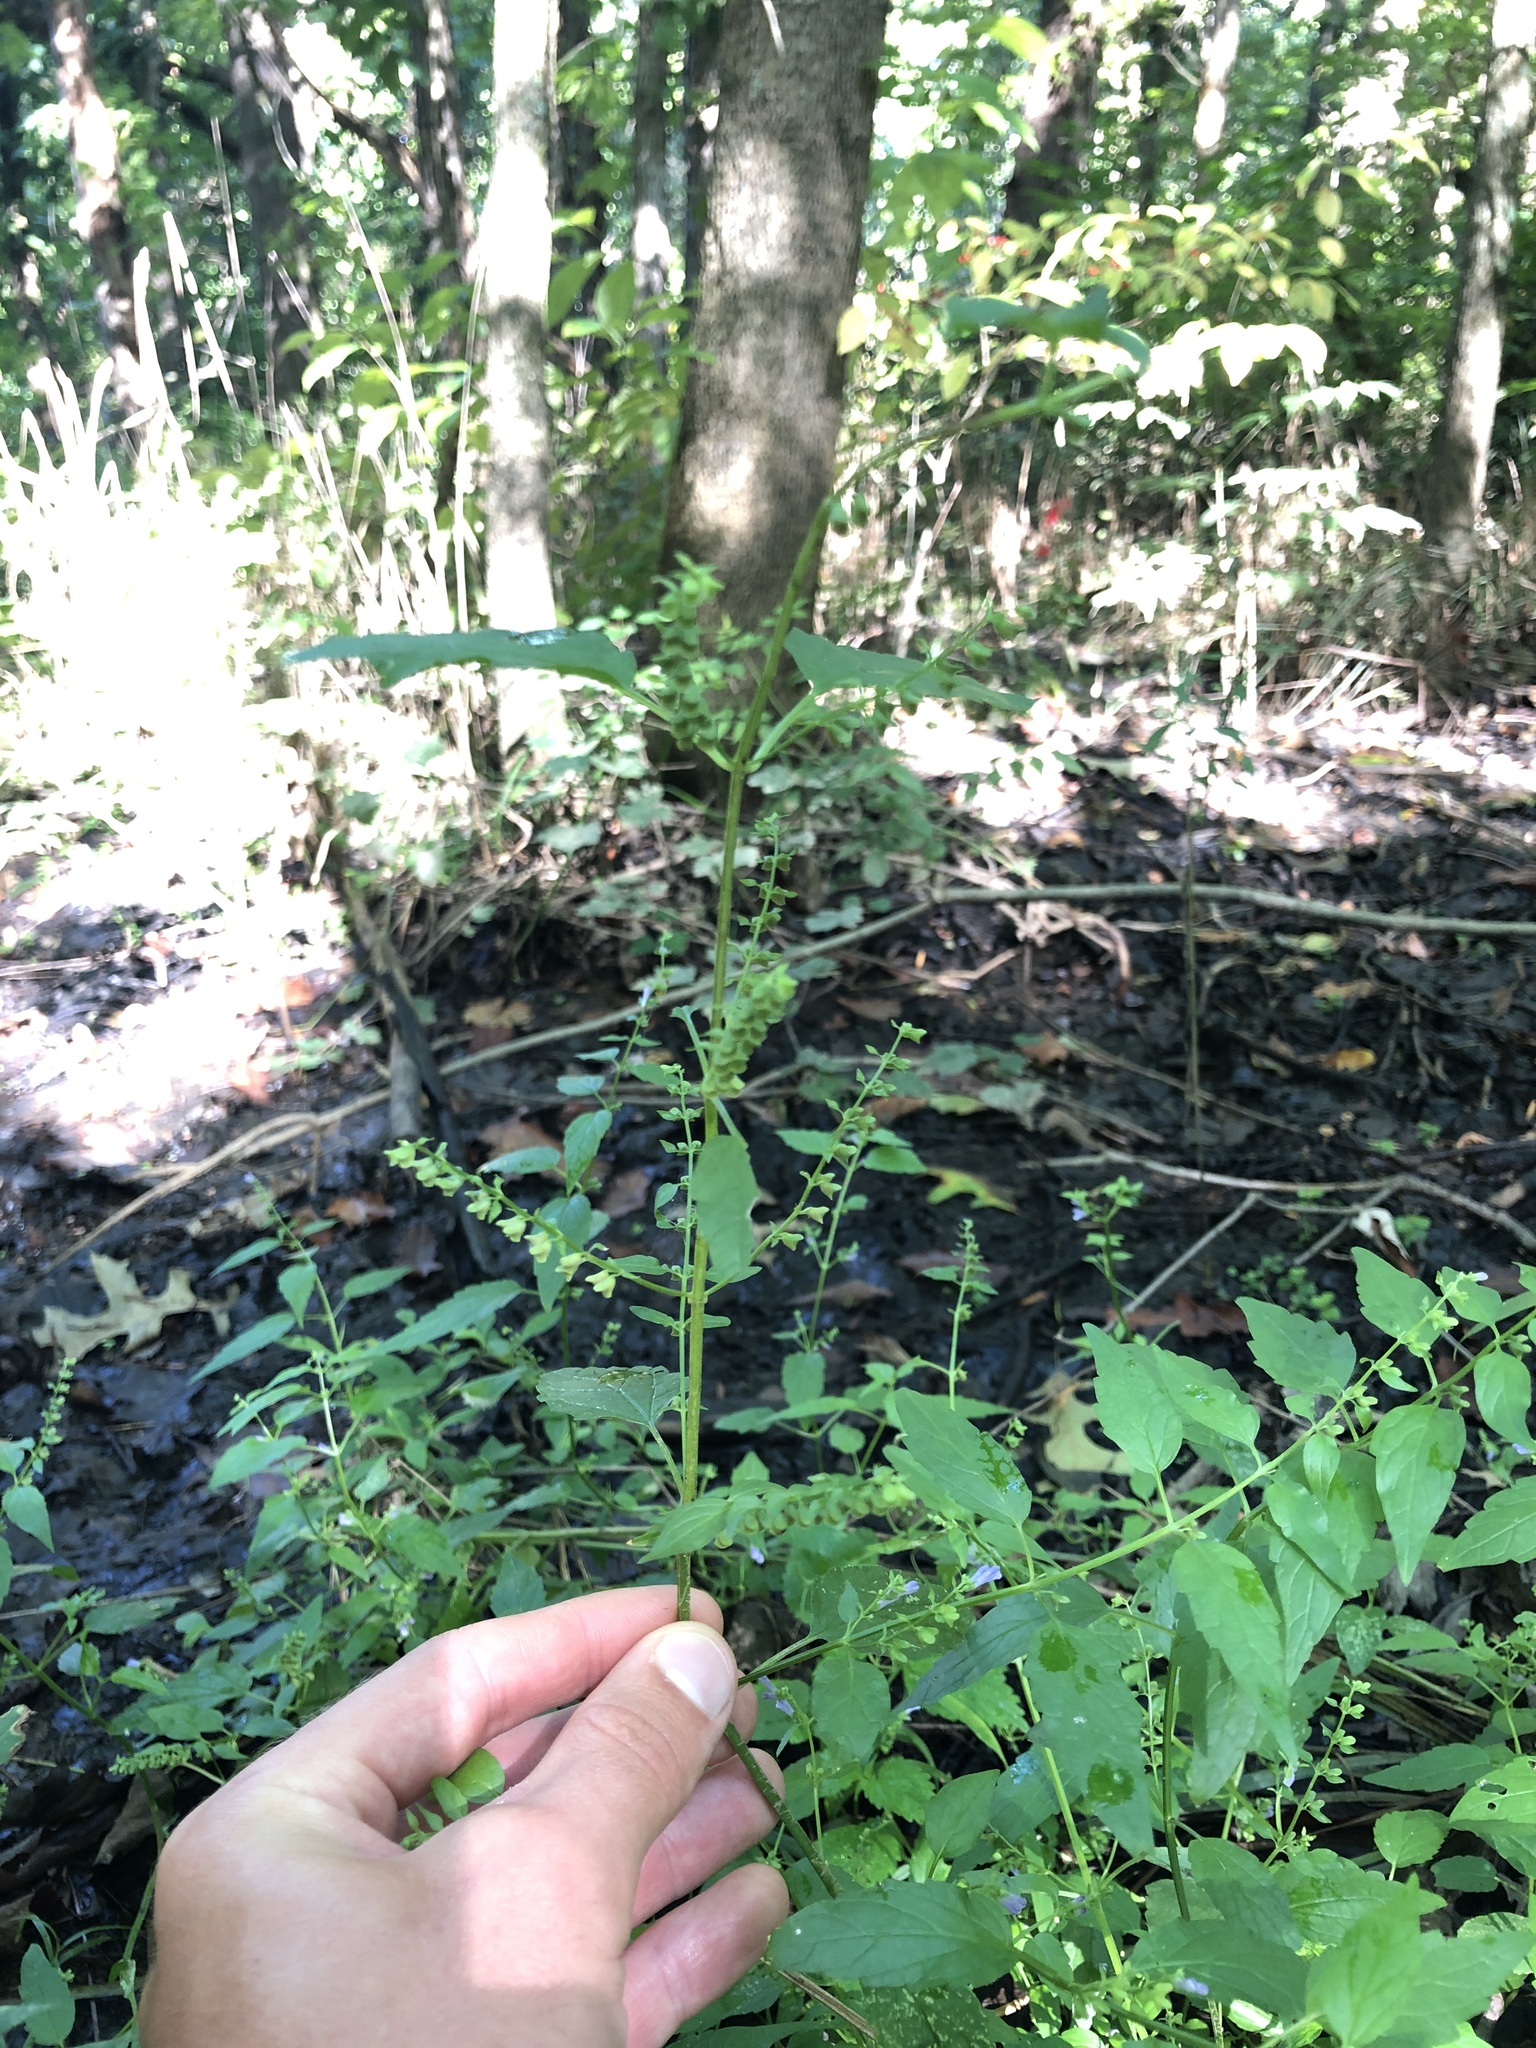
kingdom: Plantae
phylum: Tracheophyta
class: Magnoliopsida
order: Lamiales
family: Lamiaceae
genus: Scutellaria
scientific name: Scutellaria lateriflora
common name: Blue skullcap
